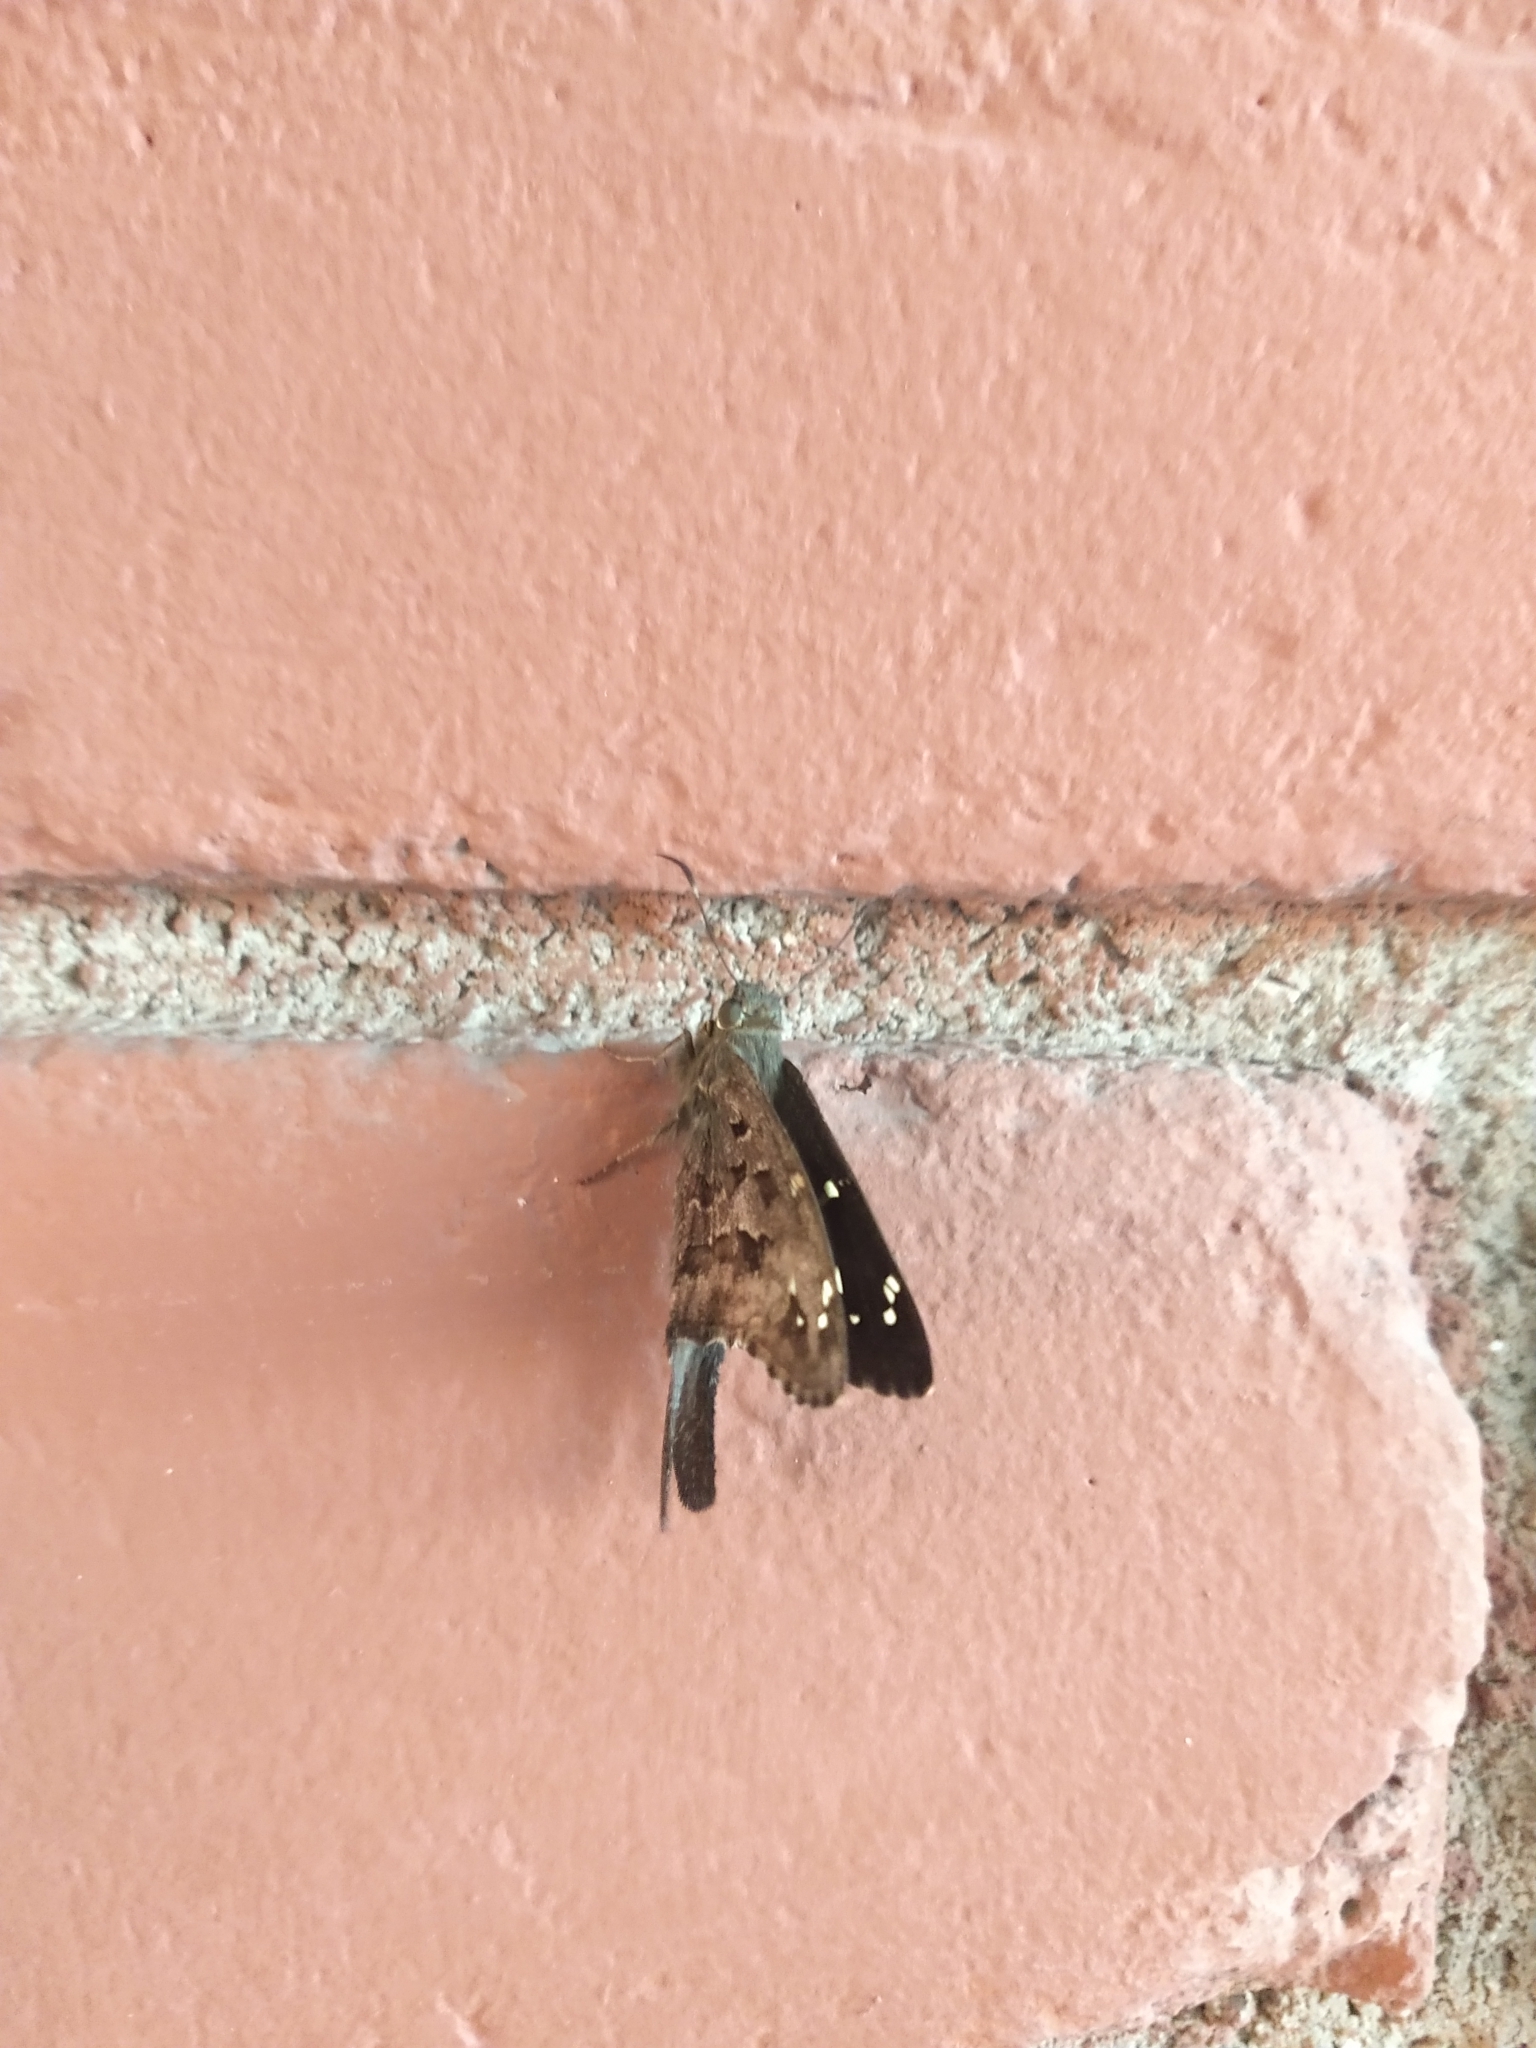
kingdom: Animalia
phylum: Arthropoda
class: Insecta
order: Lepidoptera
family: Hesperiidae
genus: Thorybes
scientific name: Thorybes
